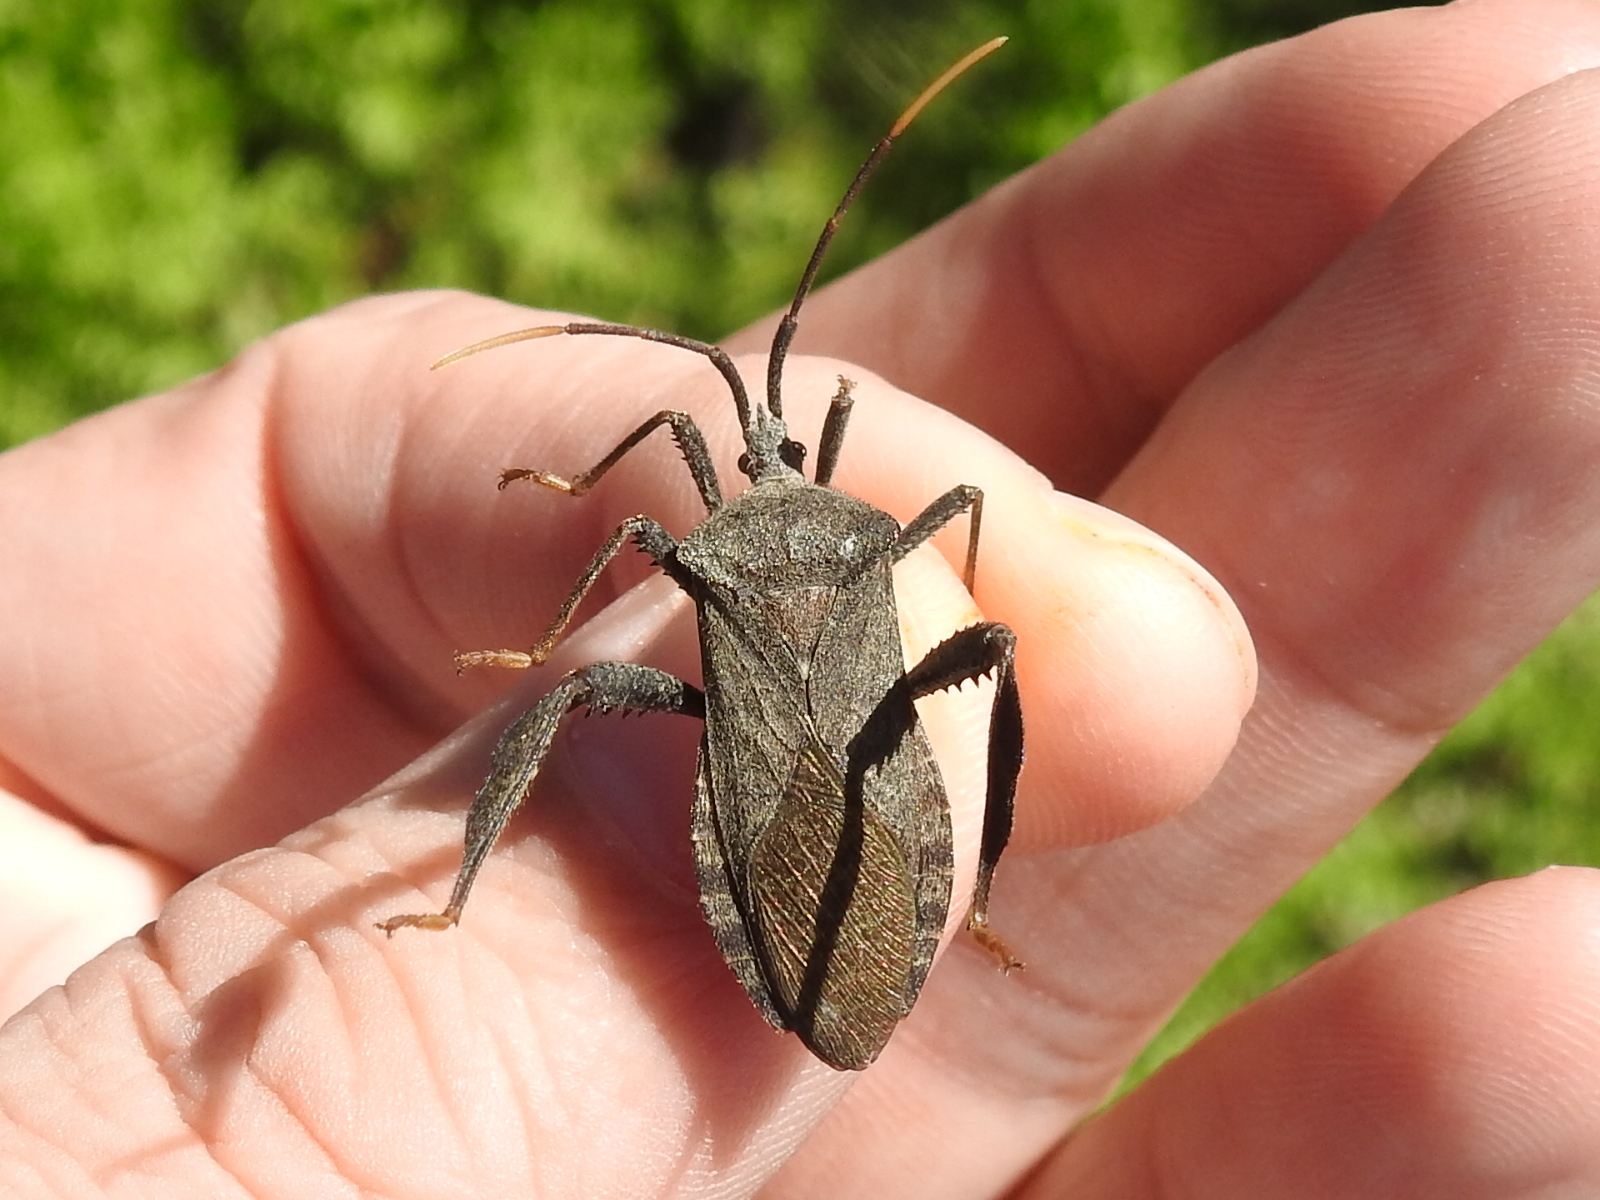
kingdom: Animalia
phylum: Arthropoda
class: Insecta
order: Hemiptera
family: Coreidae
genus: Acanthocephala
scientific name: Acanthocephala terminalis
